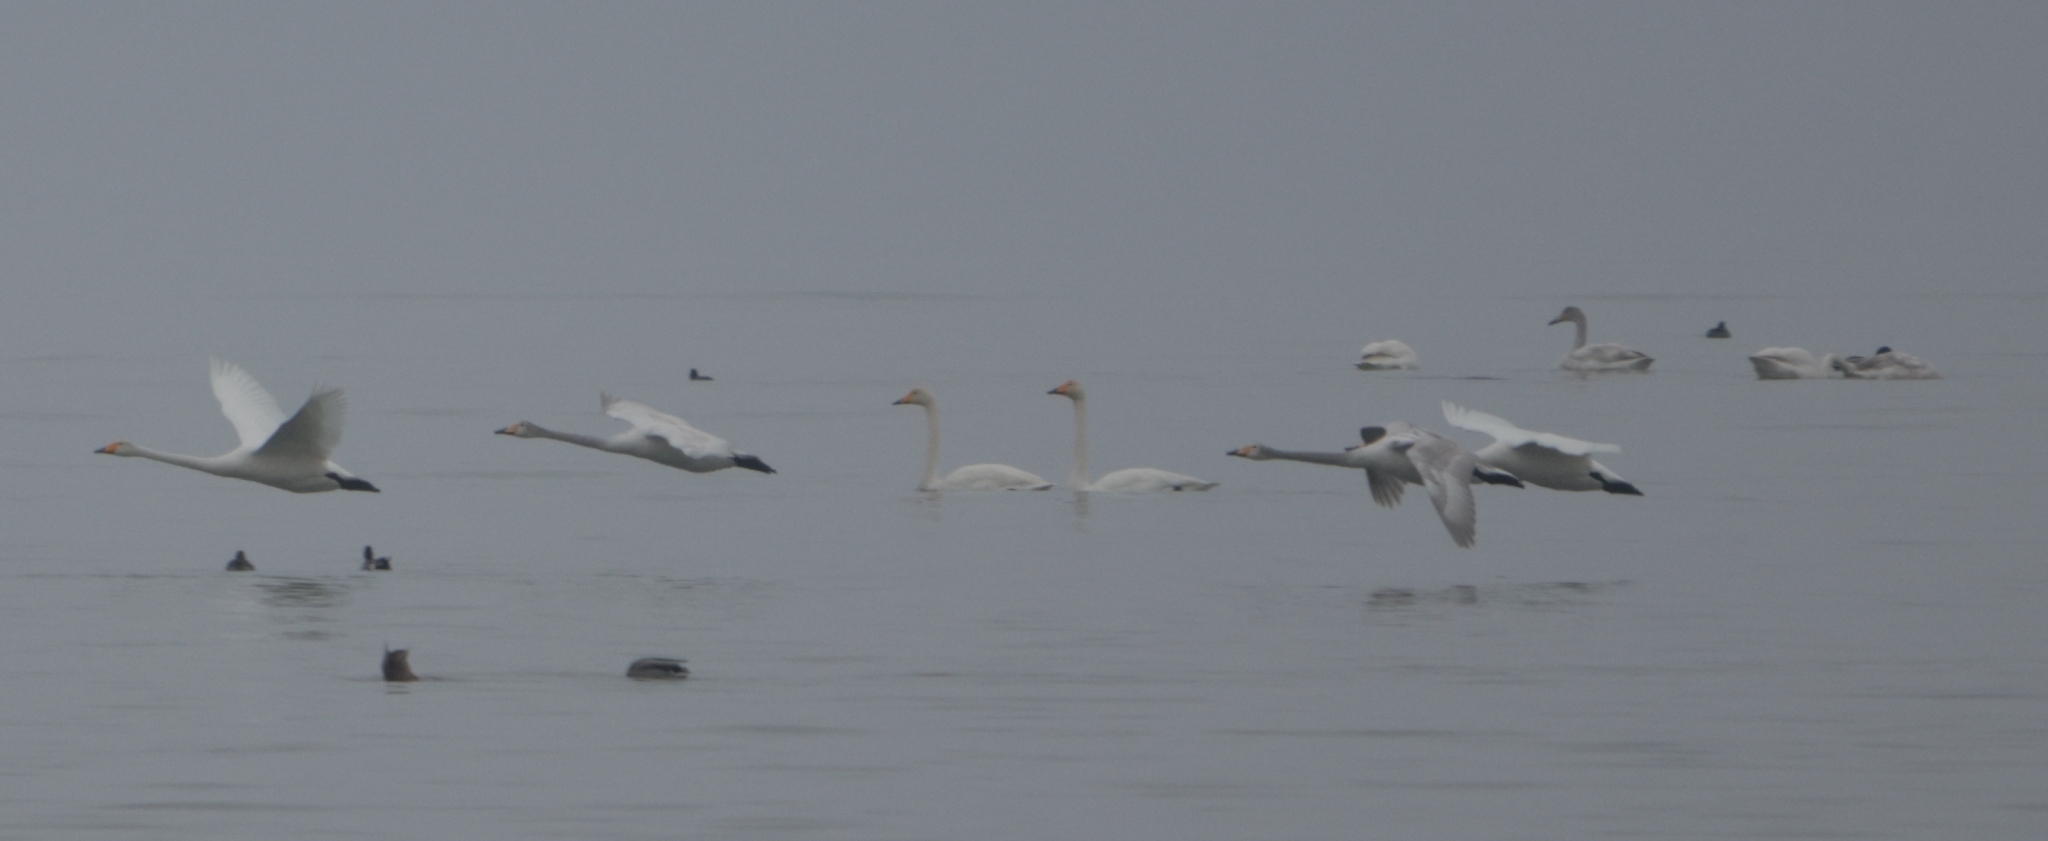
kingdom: Animalia
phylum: Chordata
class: Aves
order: Anseriformes
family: Anatidae
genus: Cygnus
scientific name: Cygnus cygnus
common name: Whooper swan
